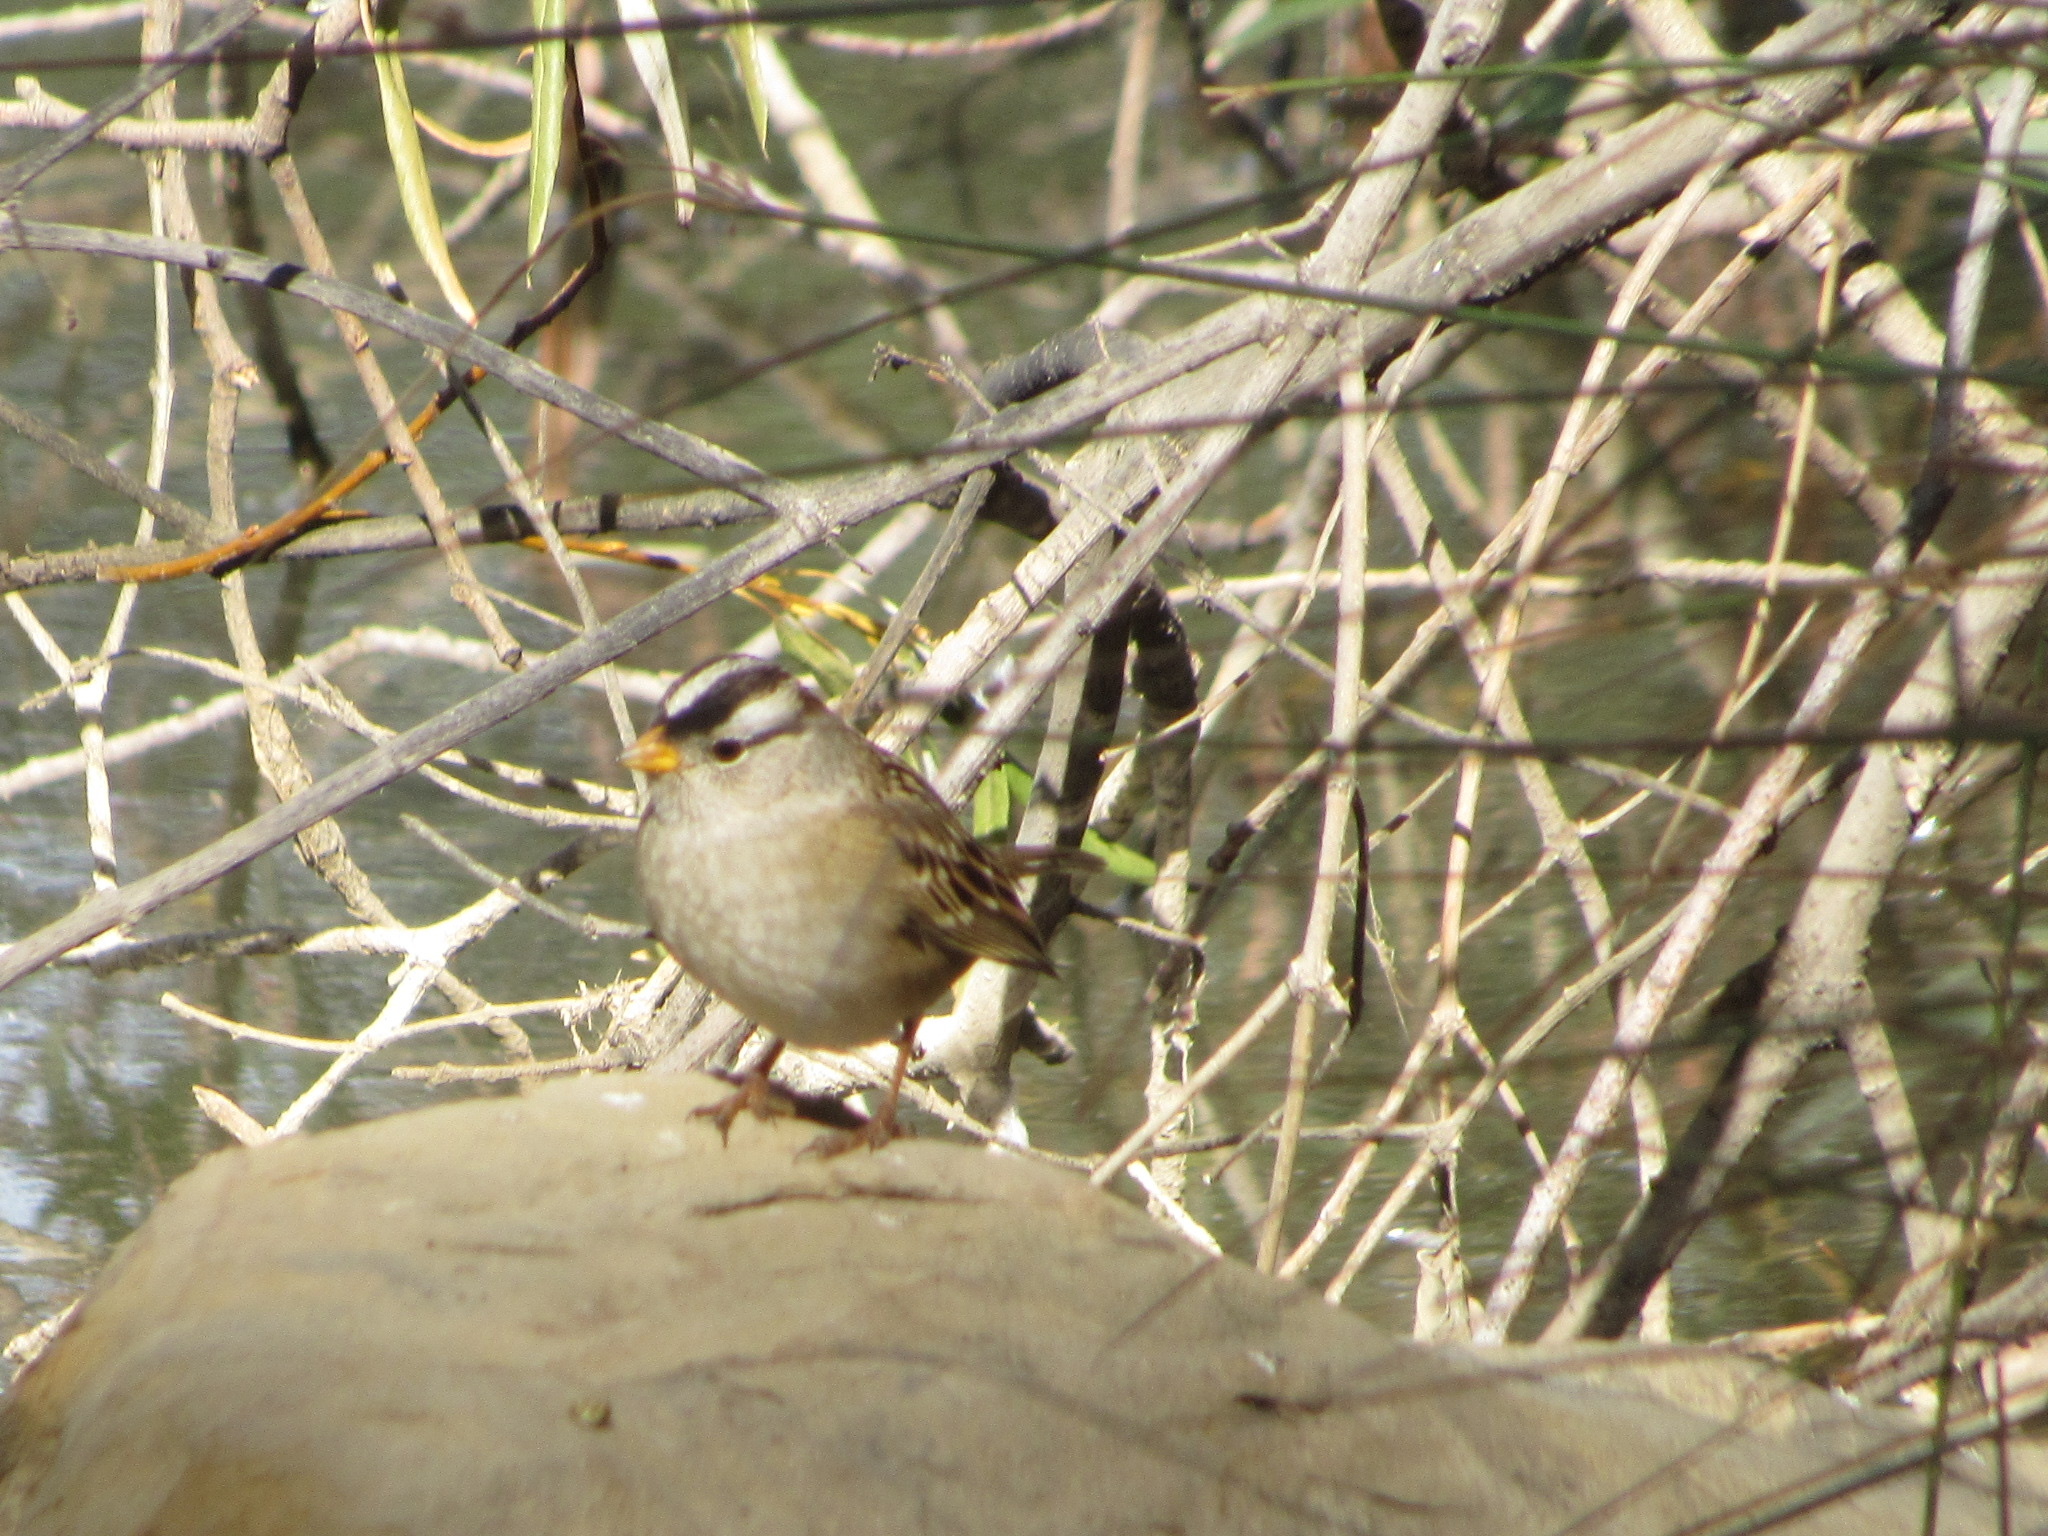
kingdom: Animalia
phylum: Chordata
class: Aves
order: Passeriformes
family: Passerellidae
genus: Zonotrichia
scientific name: Zonotrichia leucophrys
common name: White-crowned sparrow
